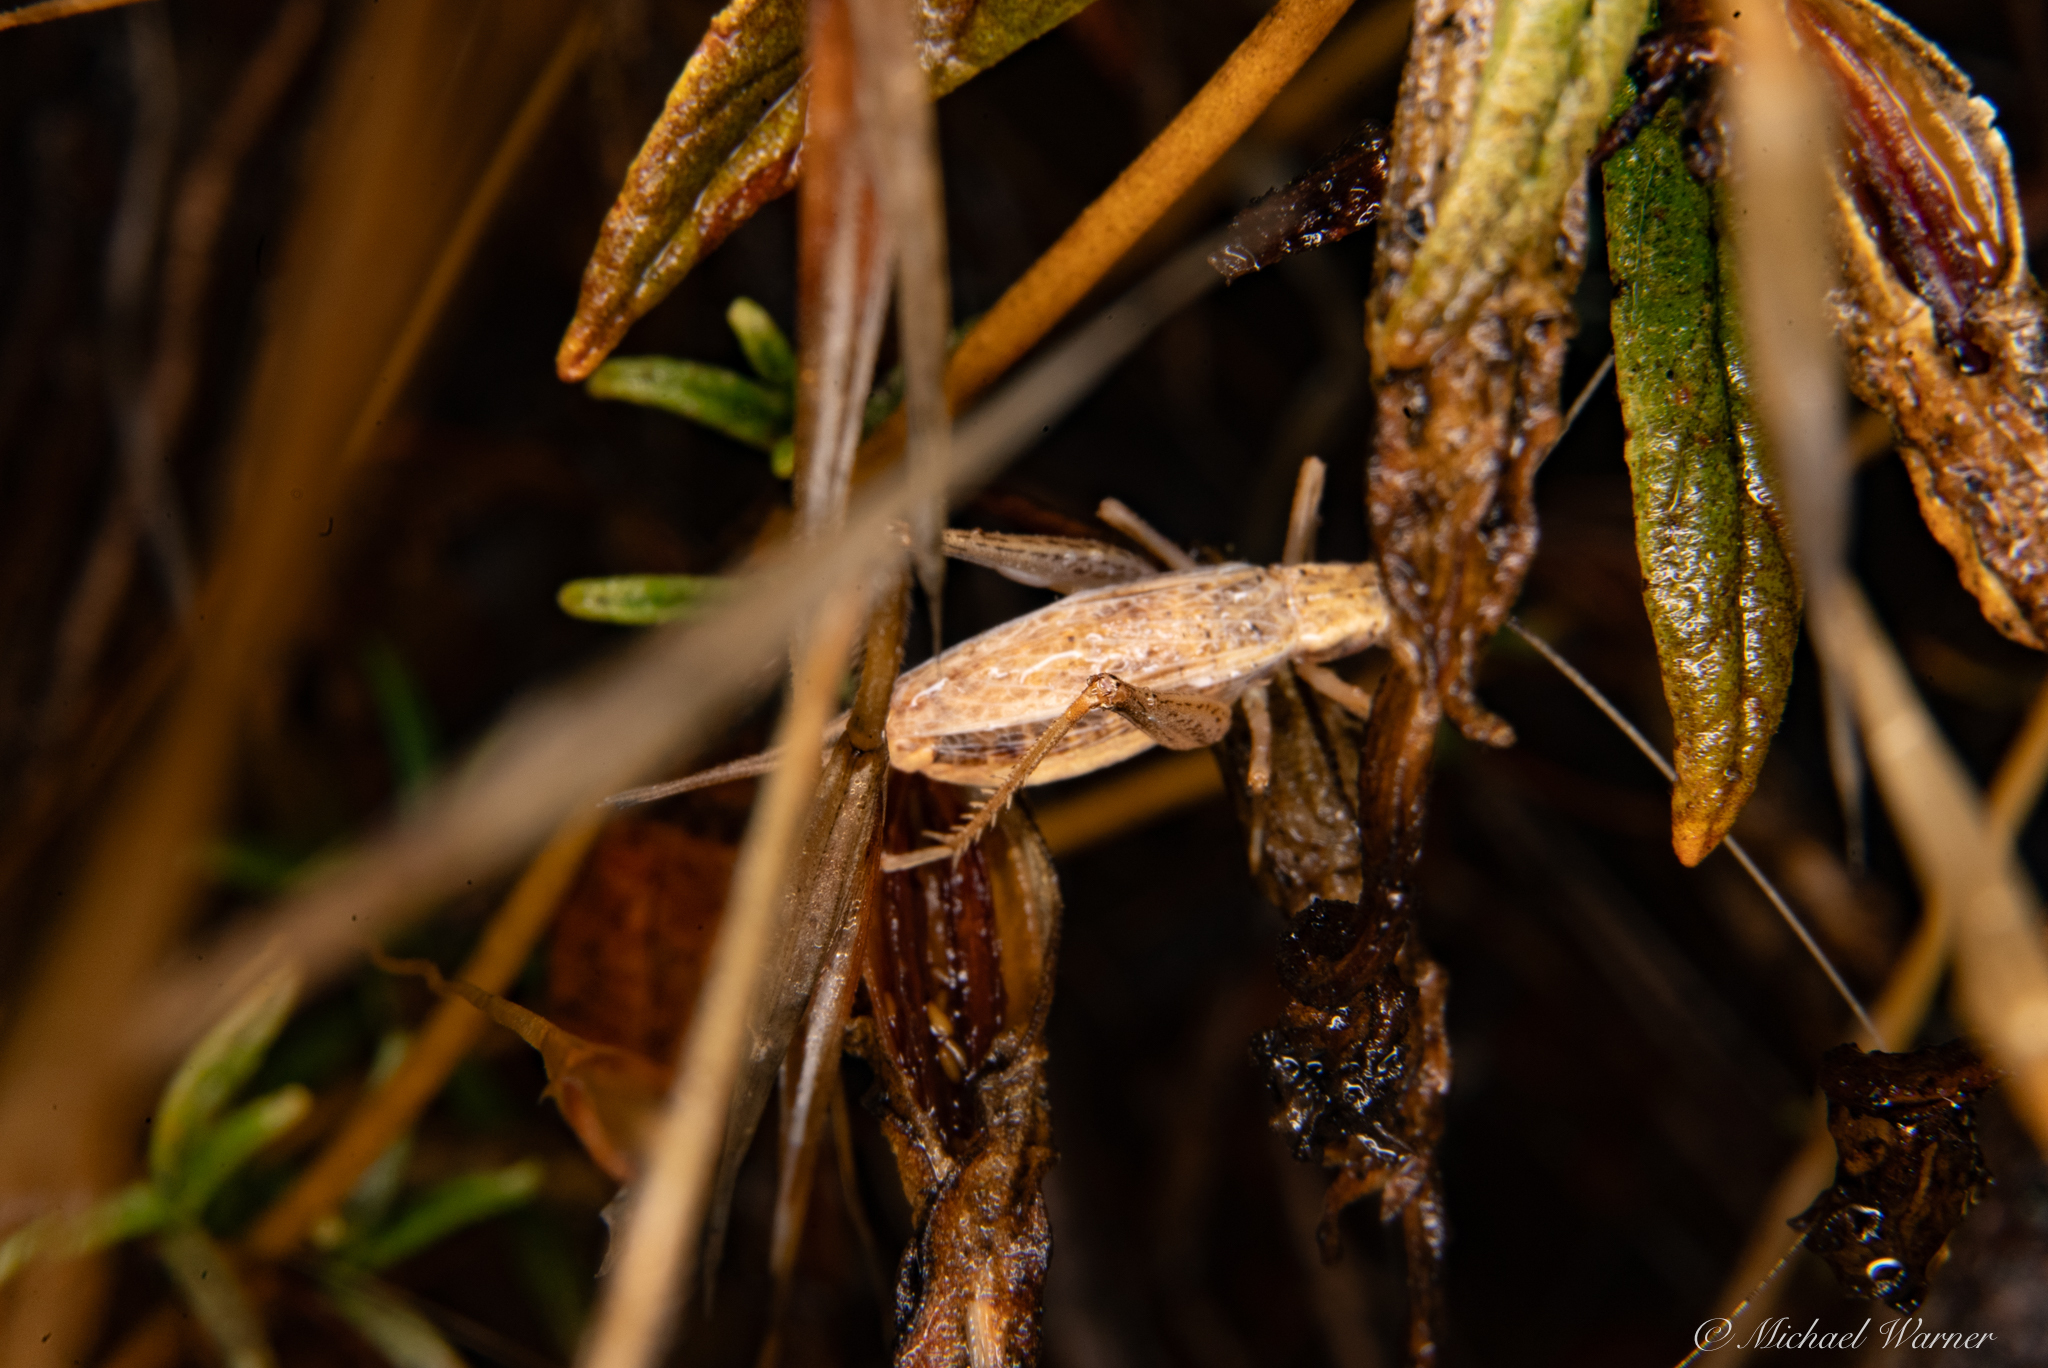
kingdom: Animalia
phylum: Arthropoda
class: Insecta
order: Orthoptera
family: Gryllidae
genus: Oecanthus
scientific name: Oecanthus californicus
